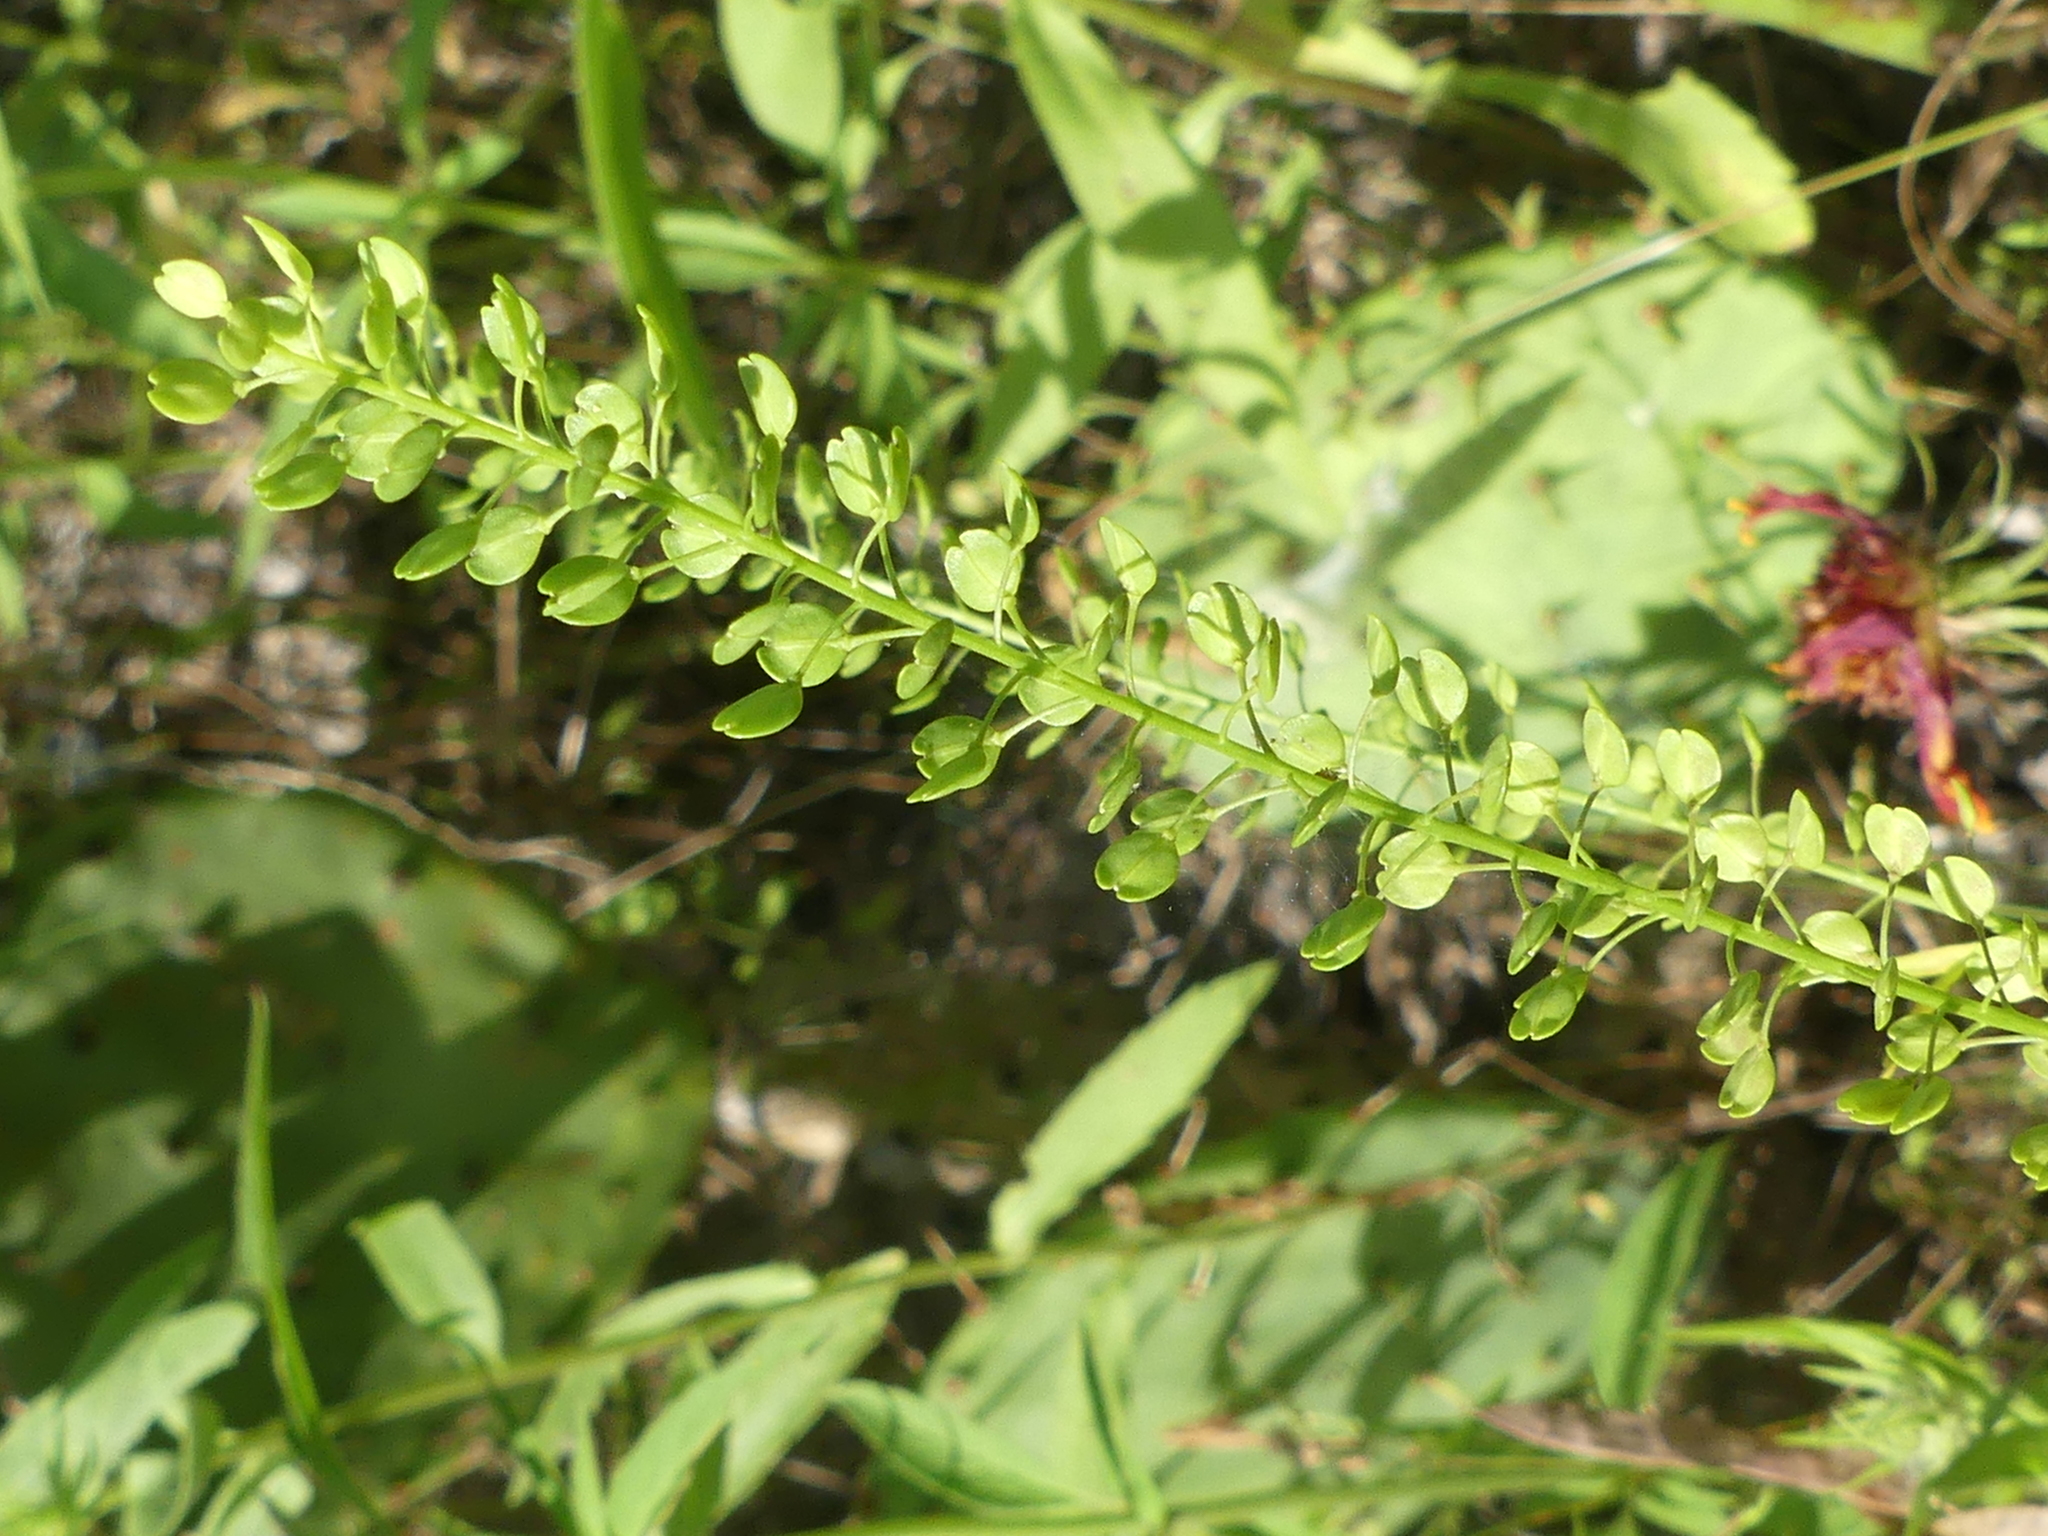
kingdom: Plantae
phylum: Tracheophyta
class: Magnoliopsida
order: Brassicales
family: Brassicaceae
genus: Lepidium
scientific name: Lepidium virginicum
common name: Least pepperwort
